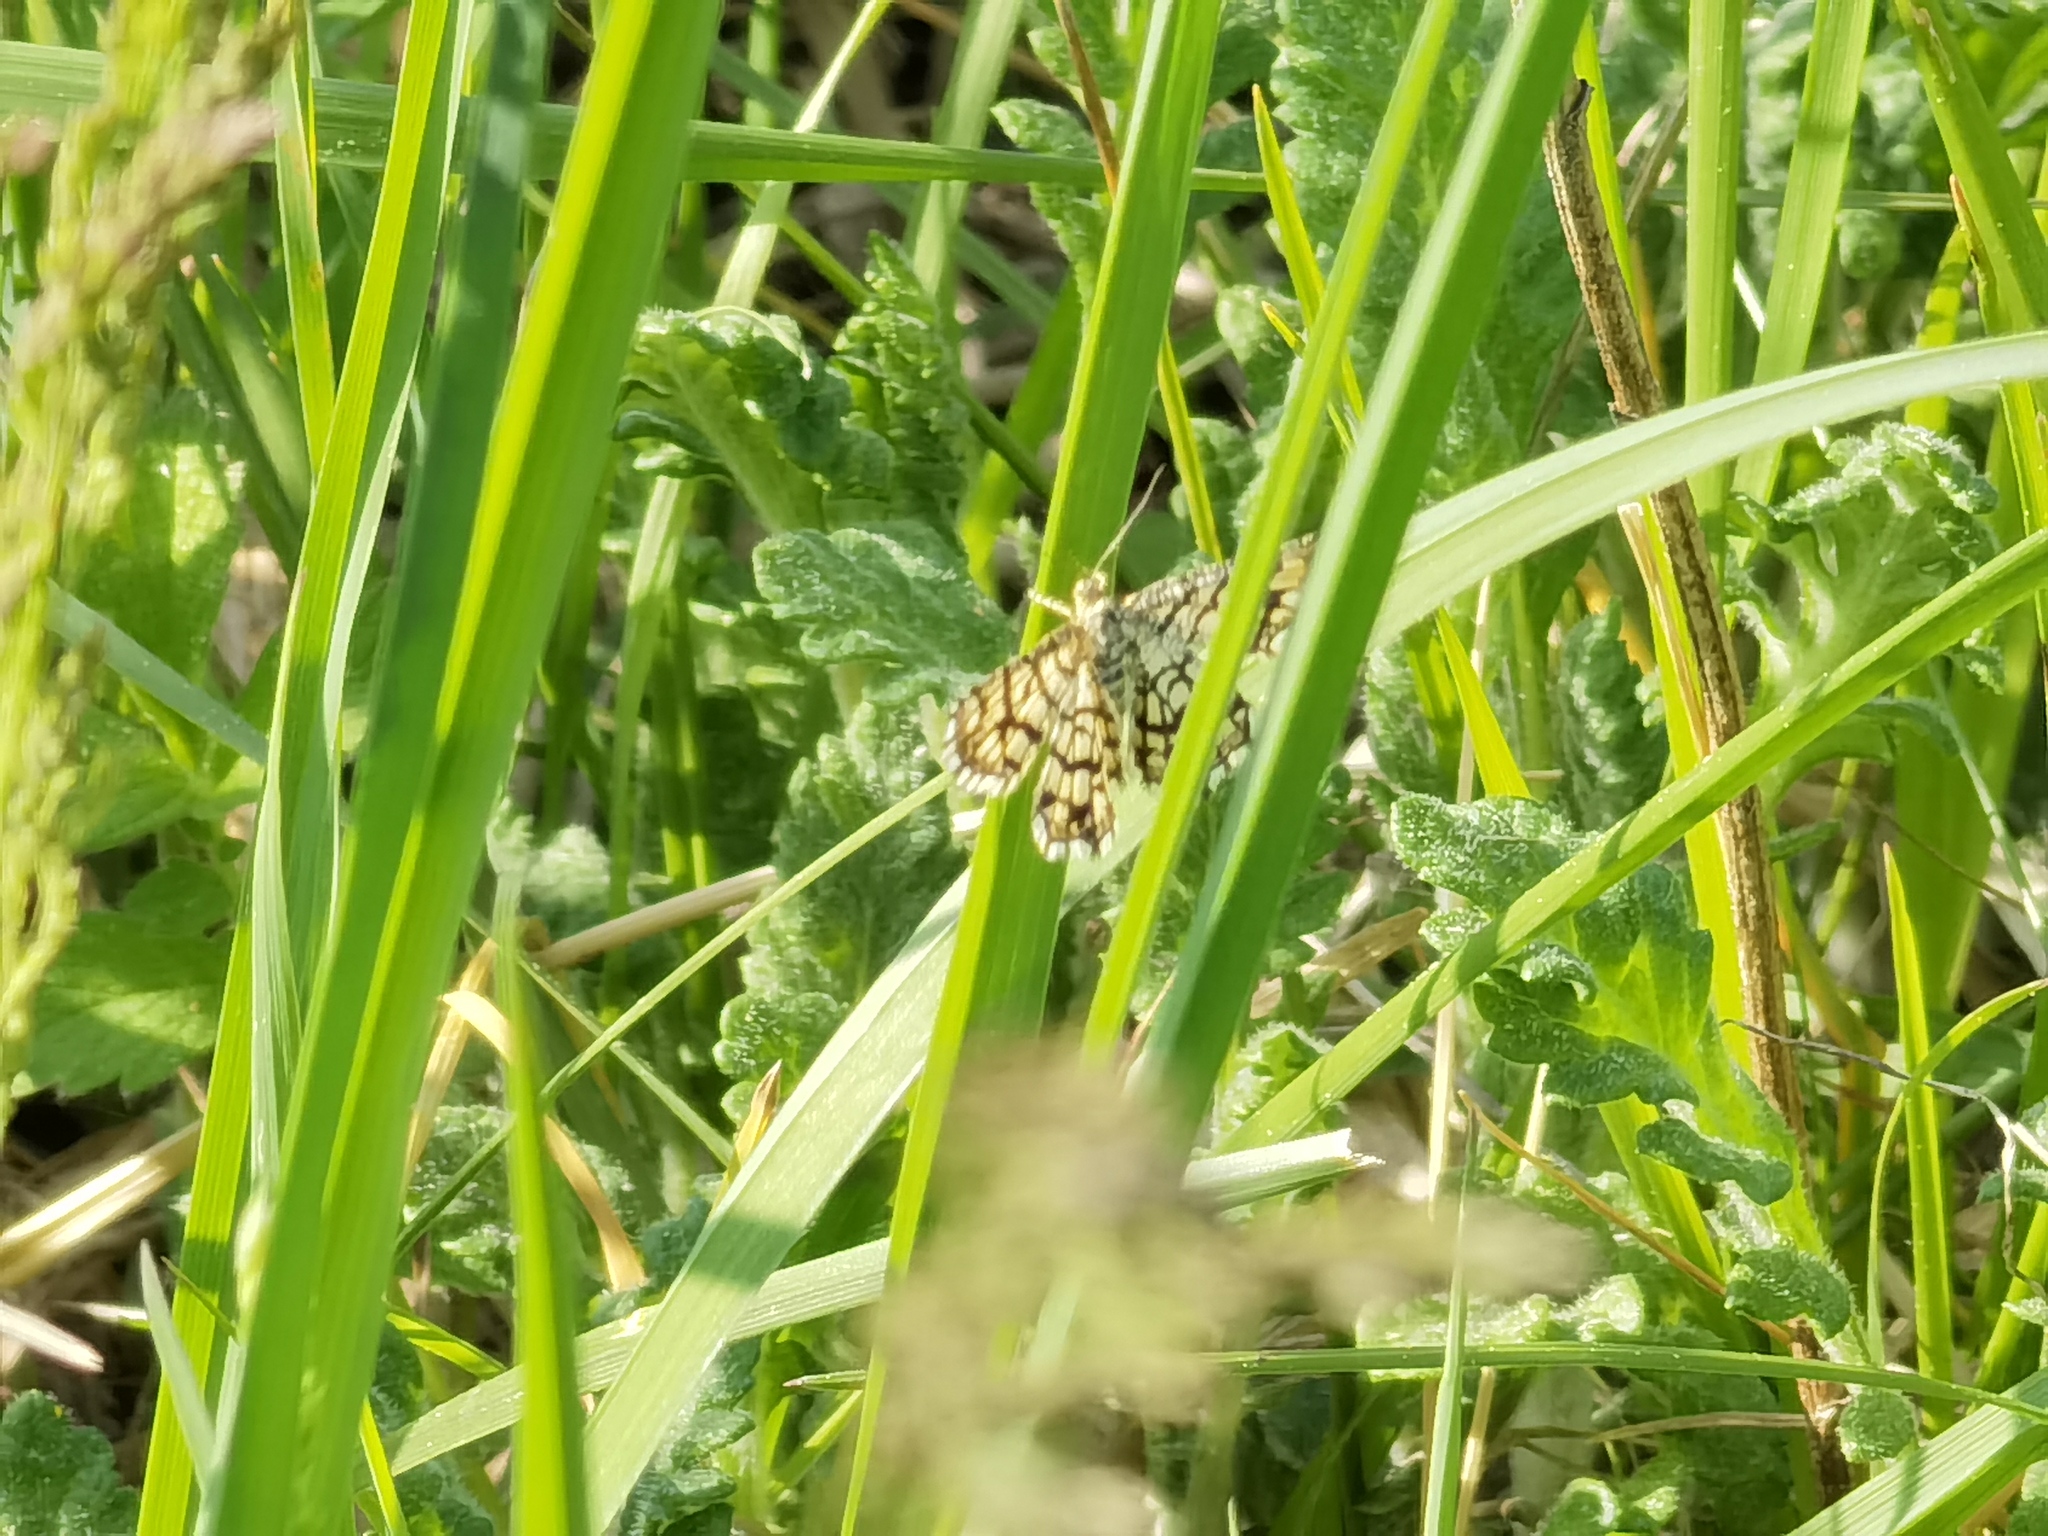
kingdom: Animalia
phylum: Arthropoda
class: Insecta
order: Lepidoptera
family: Geometridae
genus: Chiasmia
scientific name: Chiasmia clathrata
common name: Latticed heath
